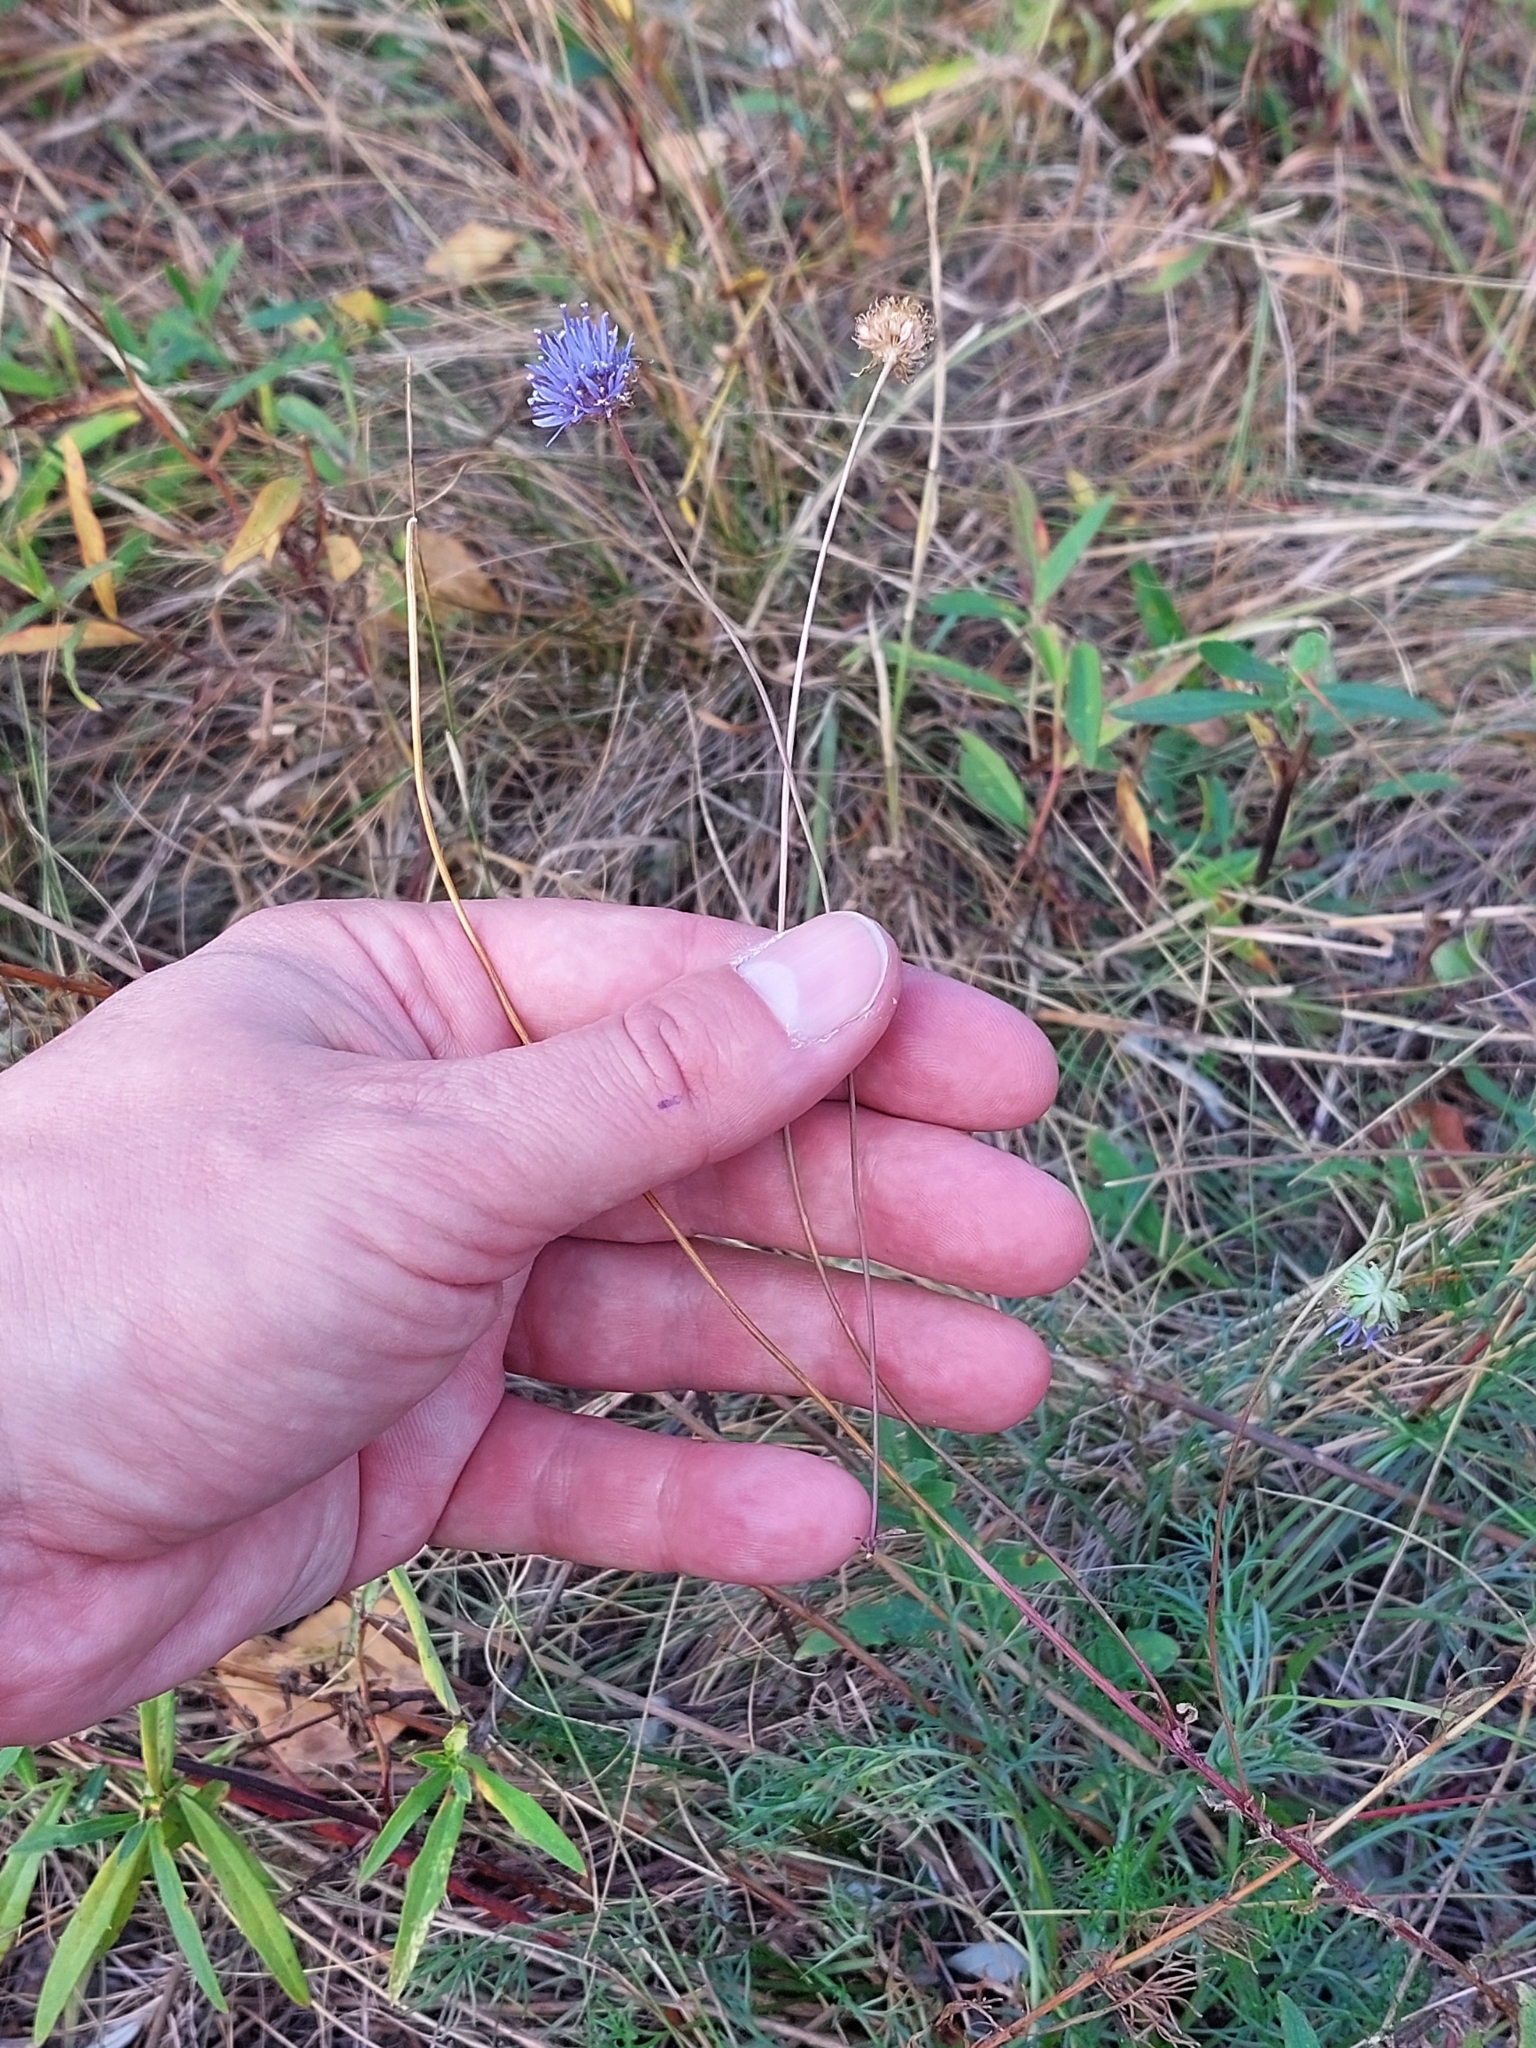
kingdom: Plantae
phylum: Tracheophyta
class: Magnoliopsida
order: Asterales
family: Campanulaceae
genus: Jasione
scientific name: Jasione montana
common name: Sheep's-bit
